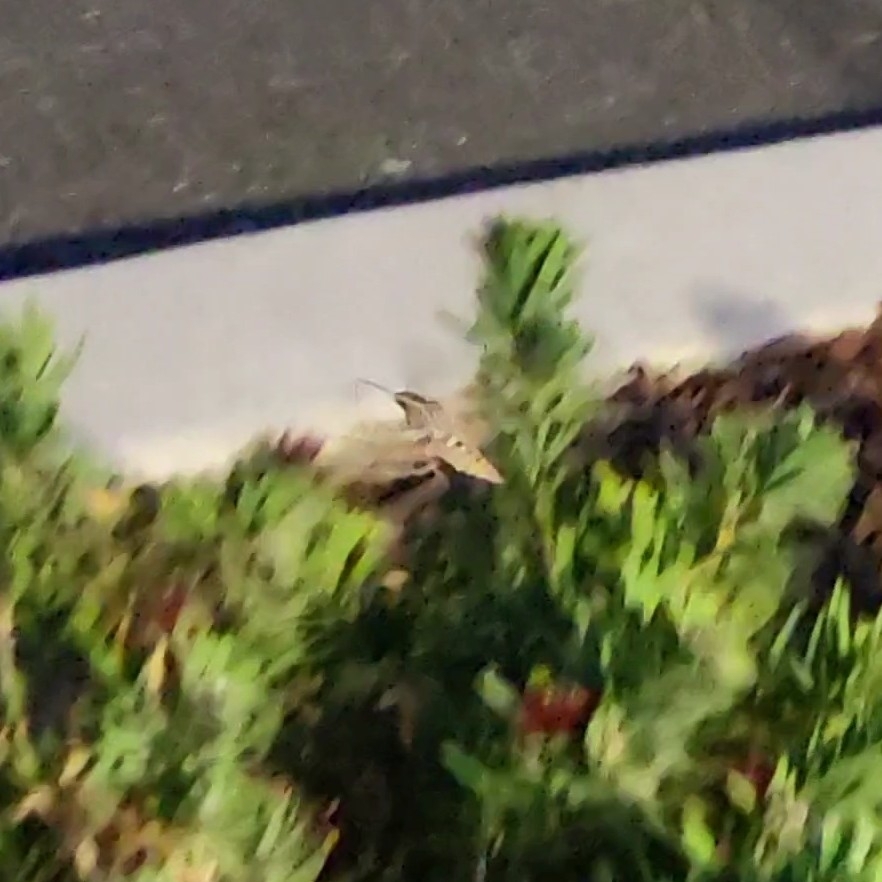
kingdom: Animalia
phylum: Arthropoda
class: Insecta
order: Lepidoptera
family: Sphingidae
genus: Hyles
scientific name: Hyles lineata
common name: White-lined sphinx
